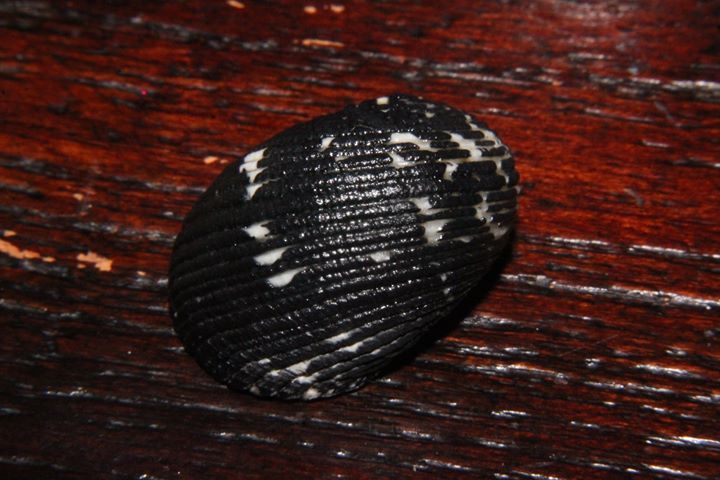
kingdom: Animalia
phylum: Mollusca
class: Gastropoda
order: Cycloneritida
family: Neritidae
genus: Nerita
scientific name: Nerita fulgurans
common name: Antillean nerite
